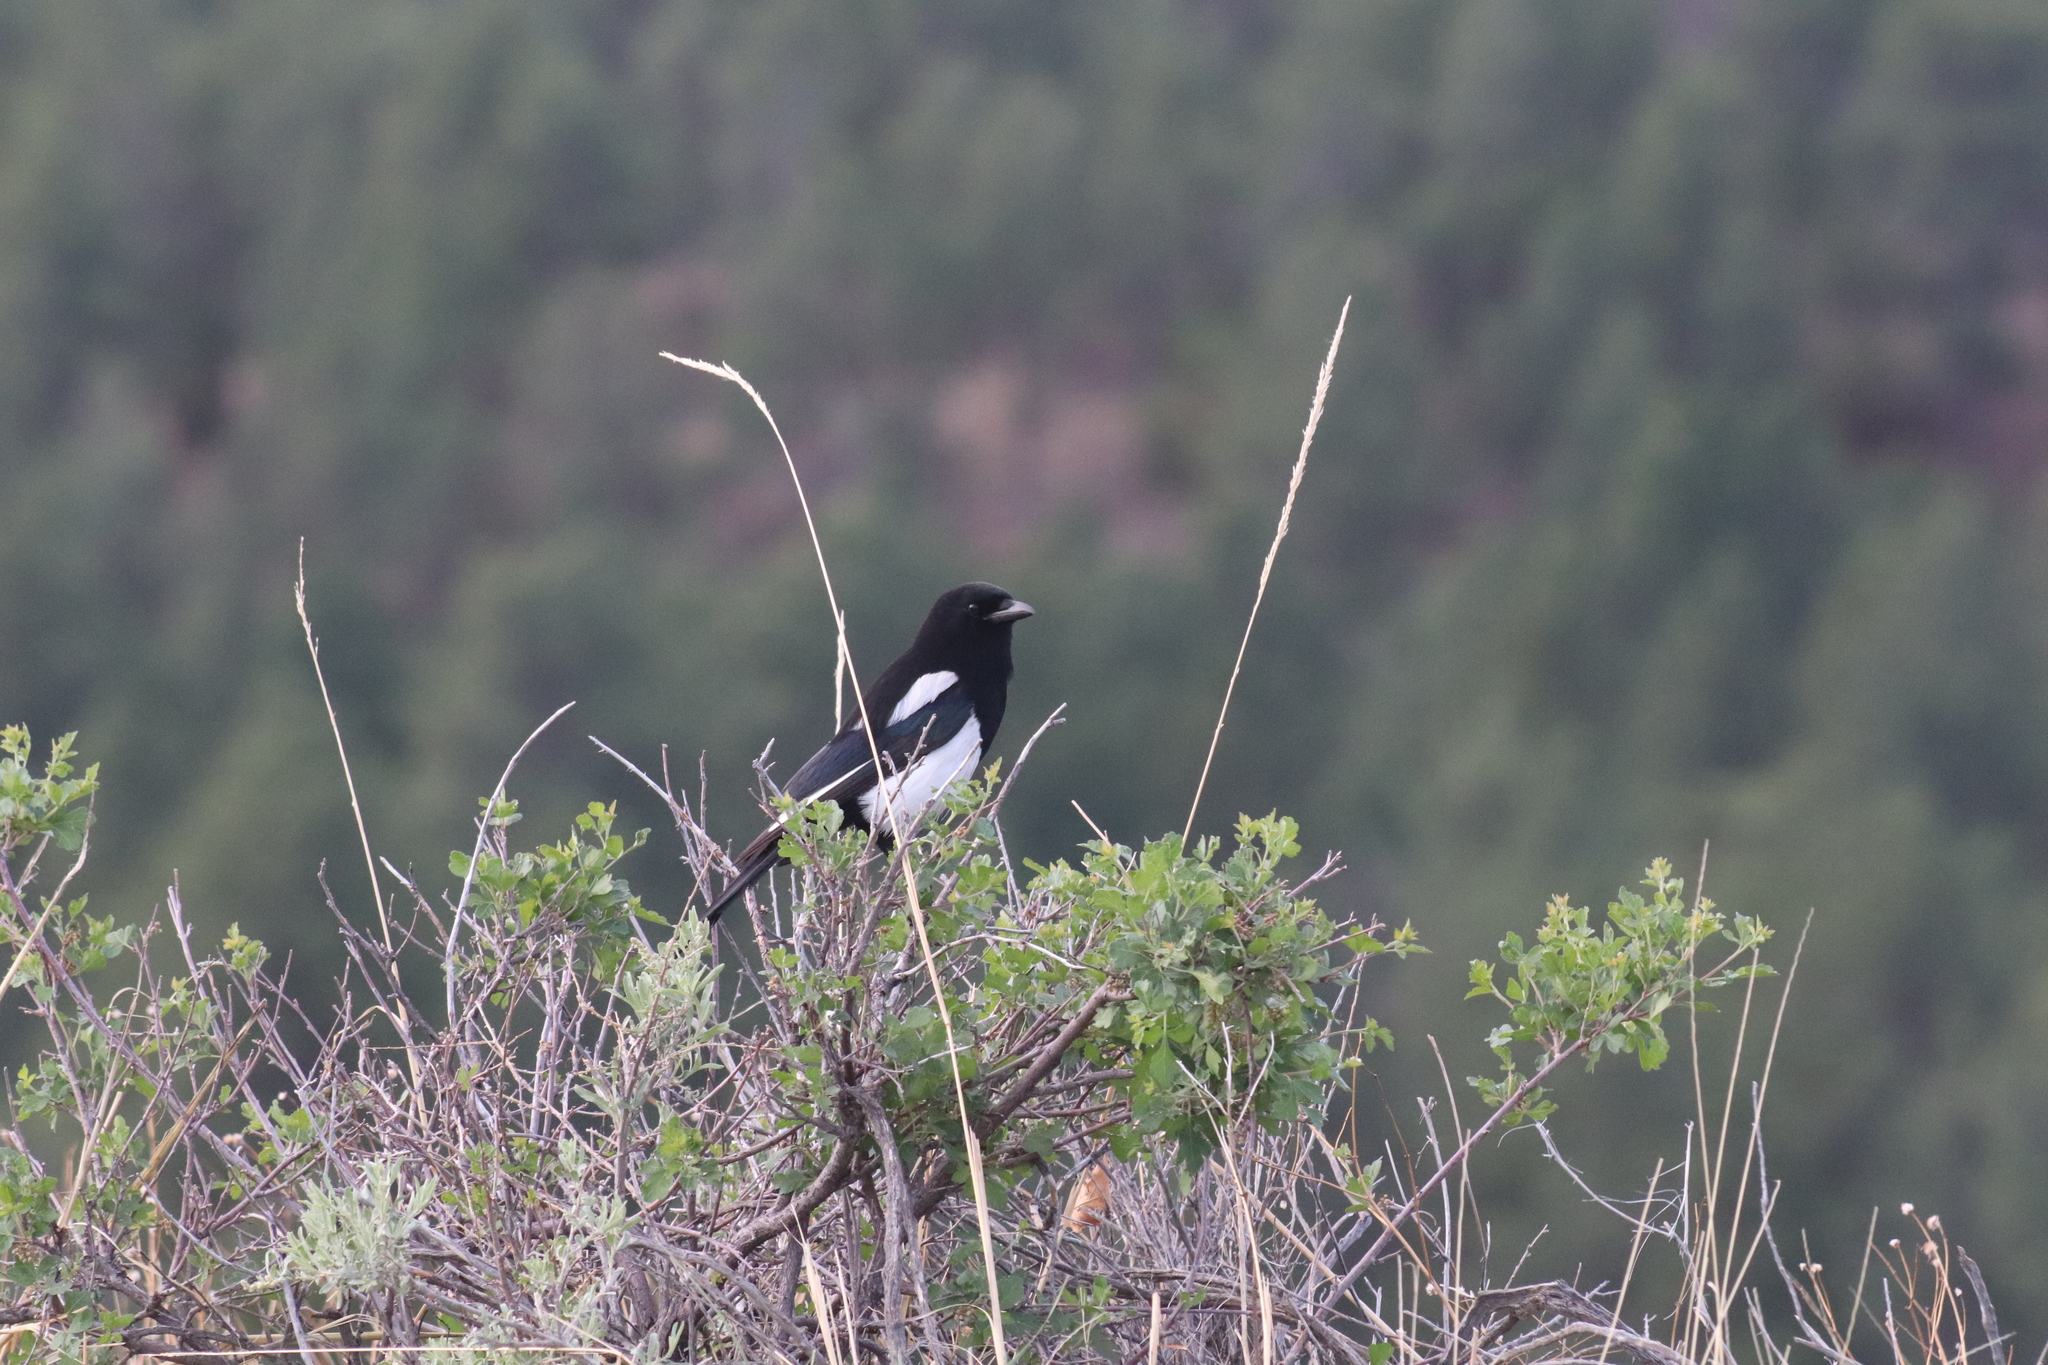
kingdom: Animalia
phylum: Chordata
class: Aves
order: Passeriformes
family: Corvidae
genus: Pica
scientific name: Pica hudsonia
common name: Black-billed magpie
